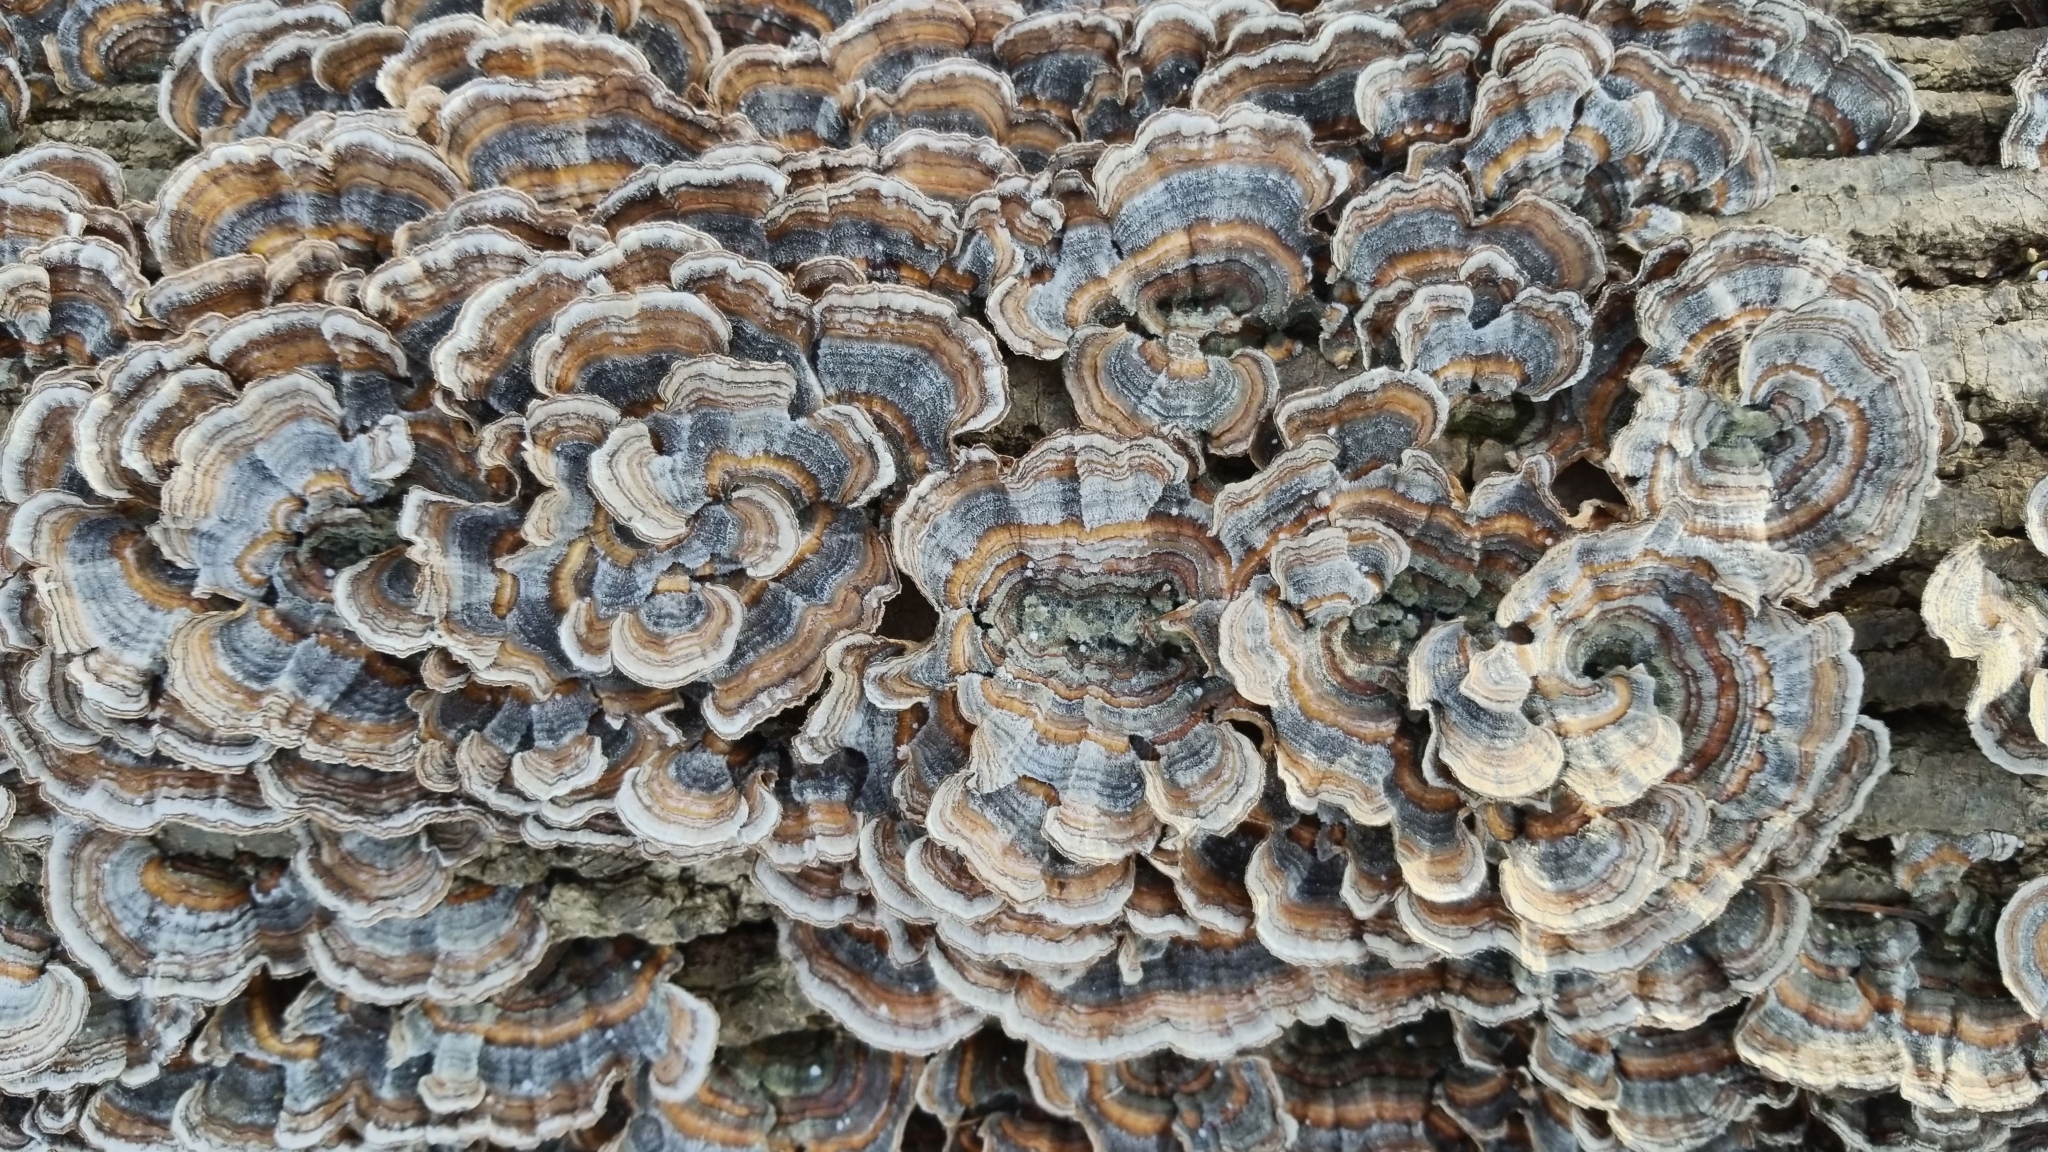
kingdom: Fungi
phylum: Basidiomycota
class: Agaricomycetes
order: Polyporales
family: Polyporaceae
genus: Trametes
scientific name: Trametes versicolor
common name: Turkeytail
